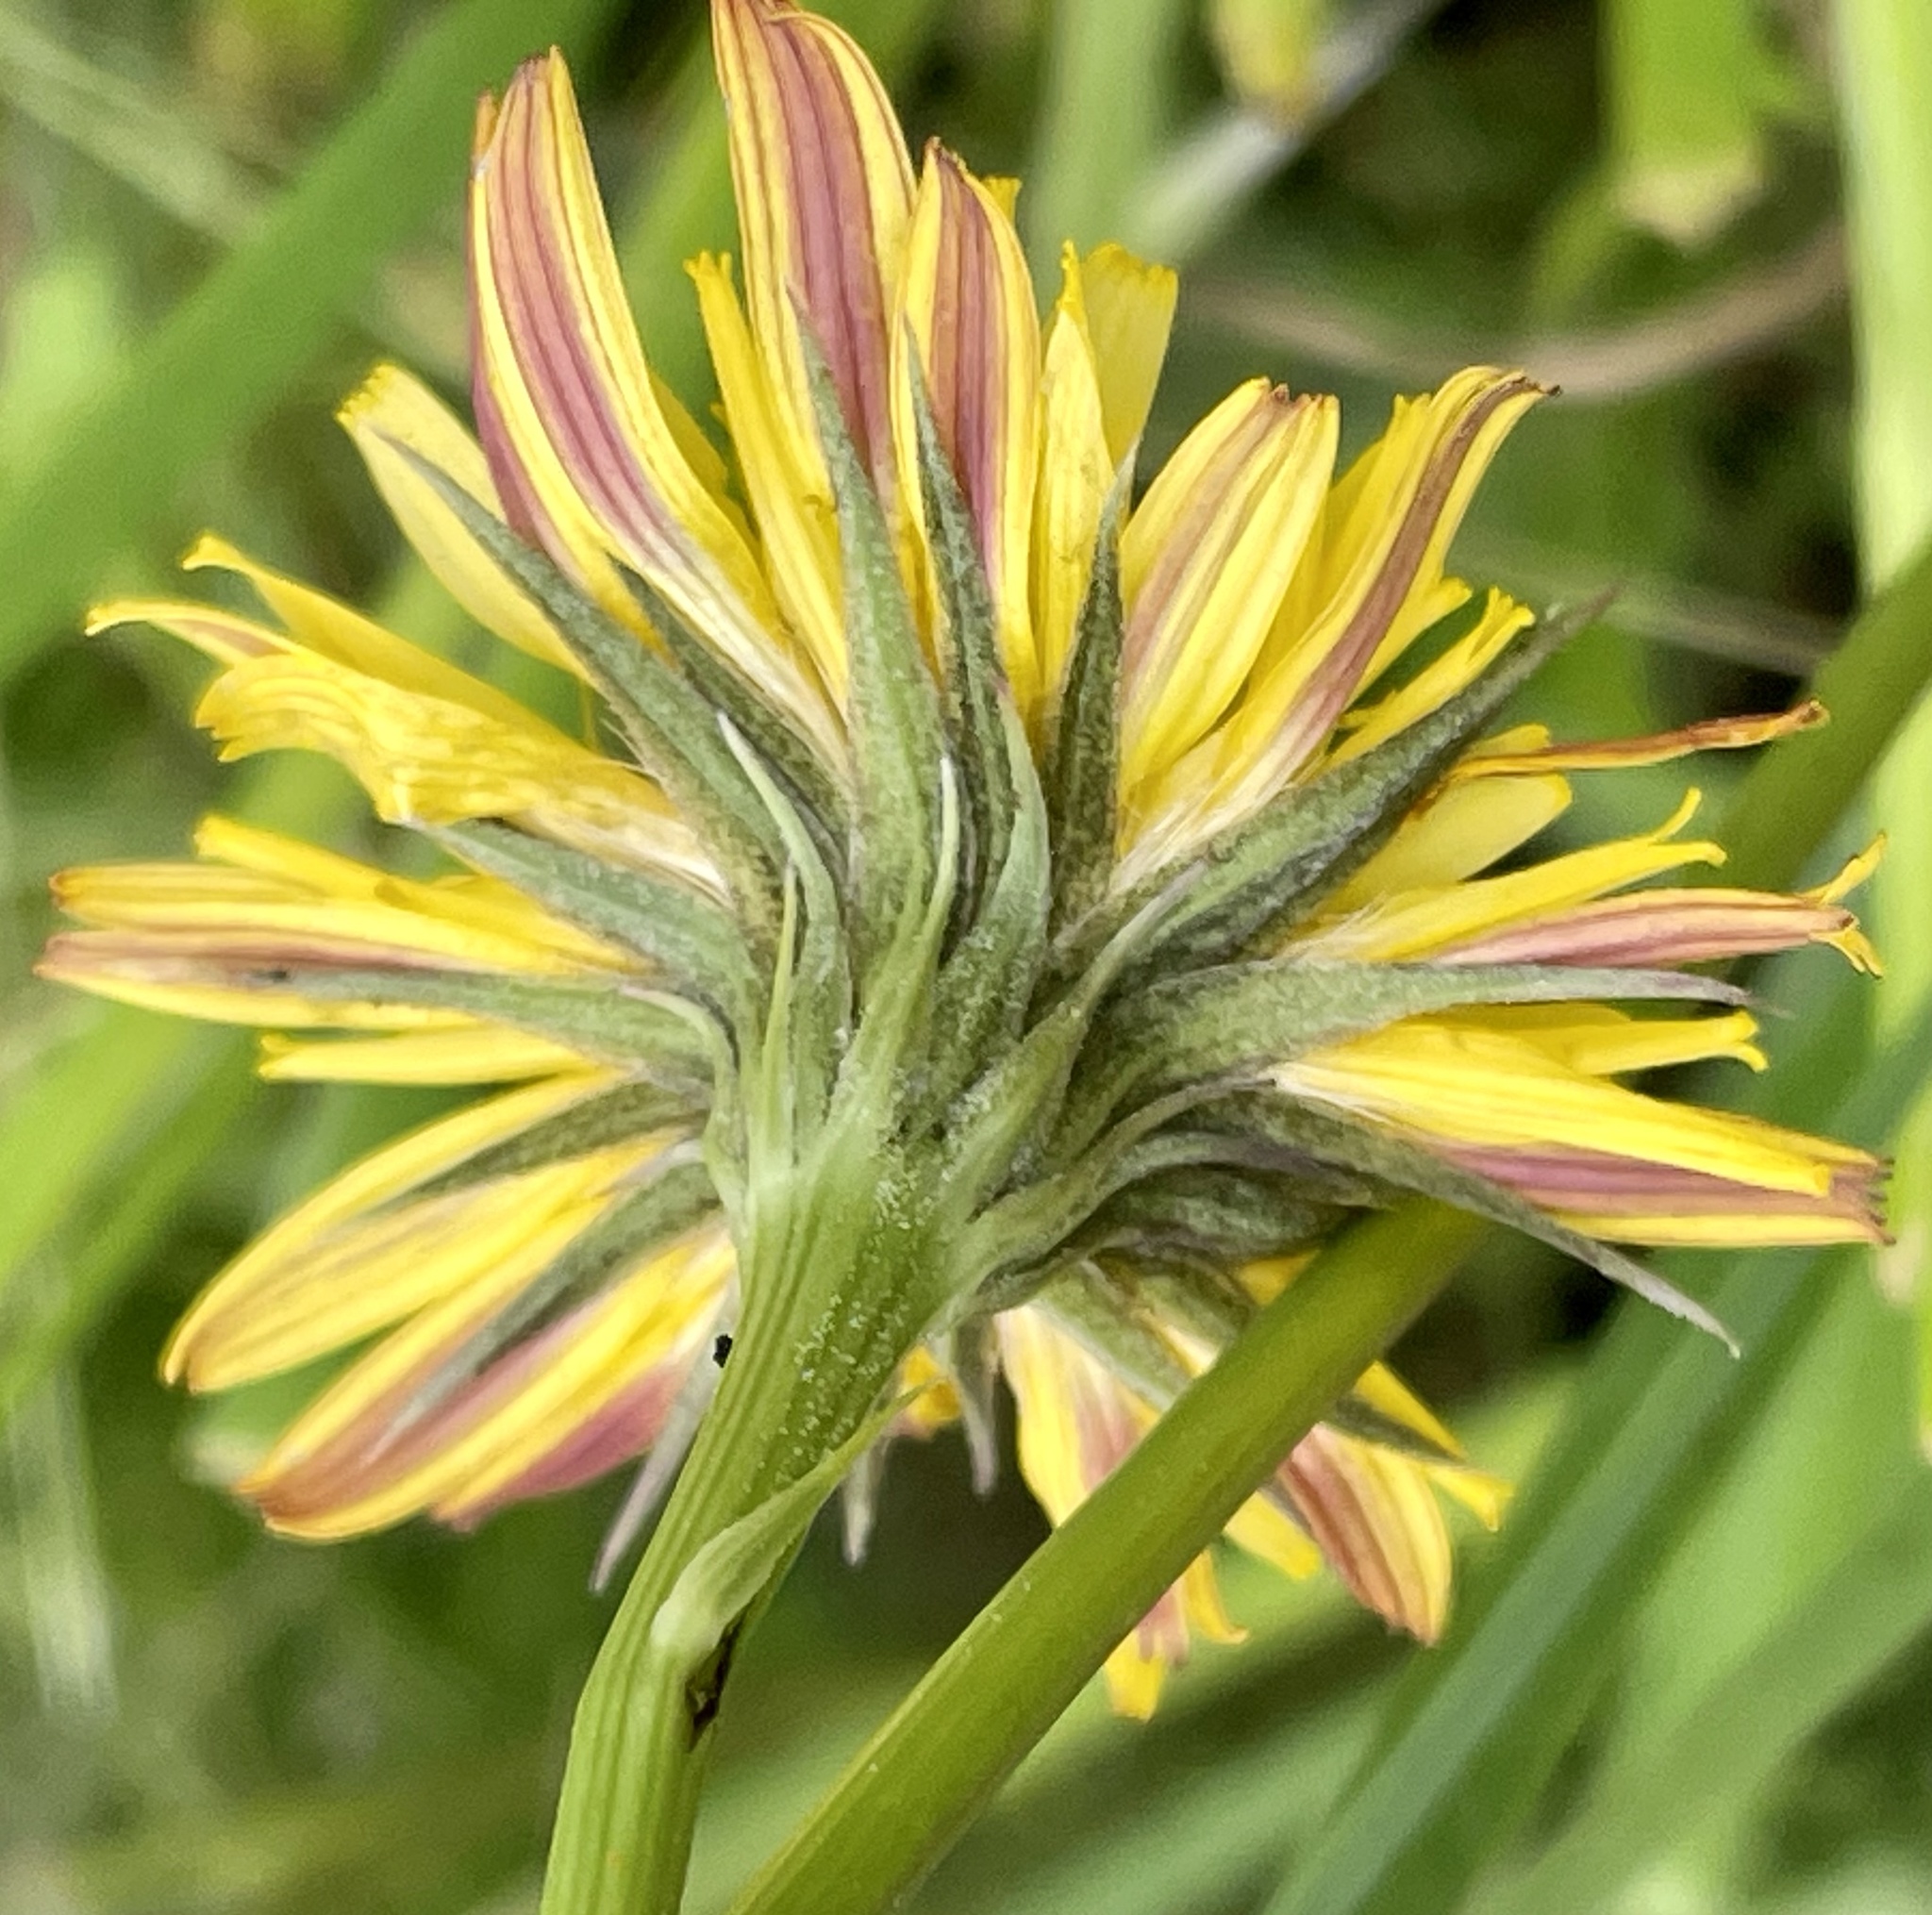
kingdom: Plantae
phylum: Tracheophyta
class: Magnoliopsida
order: Asterales
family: Asteraceae
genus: Microseris
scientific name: Microseris paludosa
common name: Marsh silverpuffs
